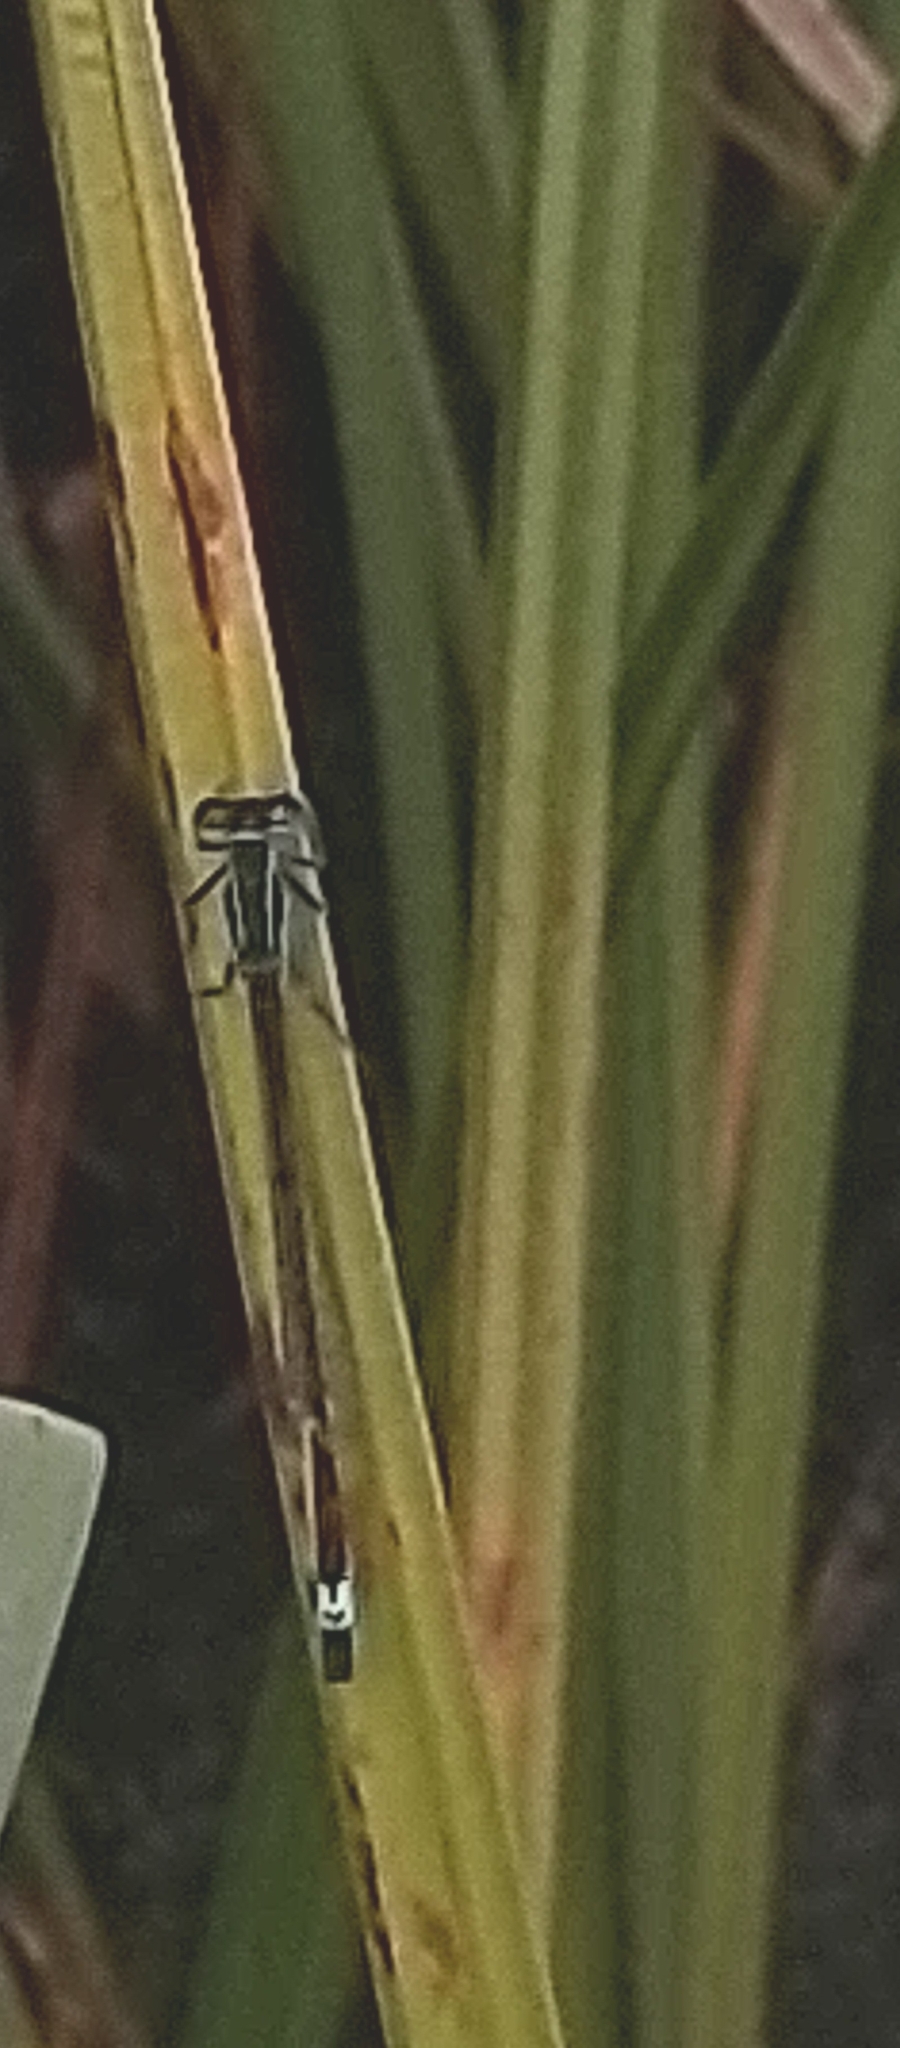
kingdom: Animalia
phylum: Arthropoda
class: Insecta
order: Odonata
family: Coenagrionidae
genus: Ischnura
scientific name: Ischnura elegans
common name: Blue-tailed damselfly
